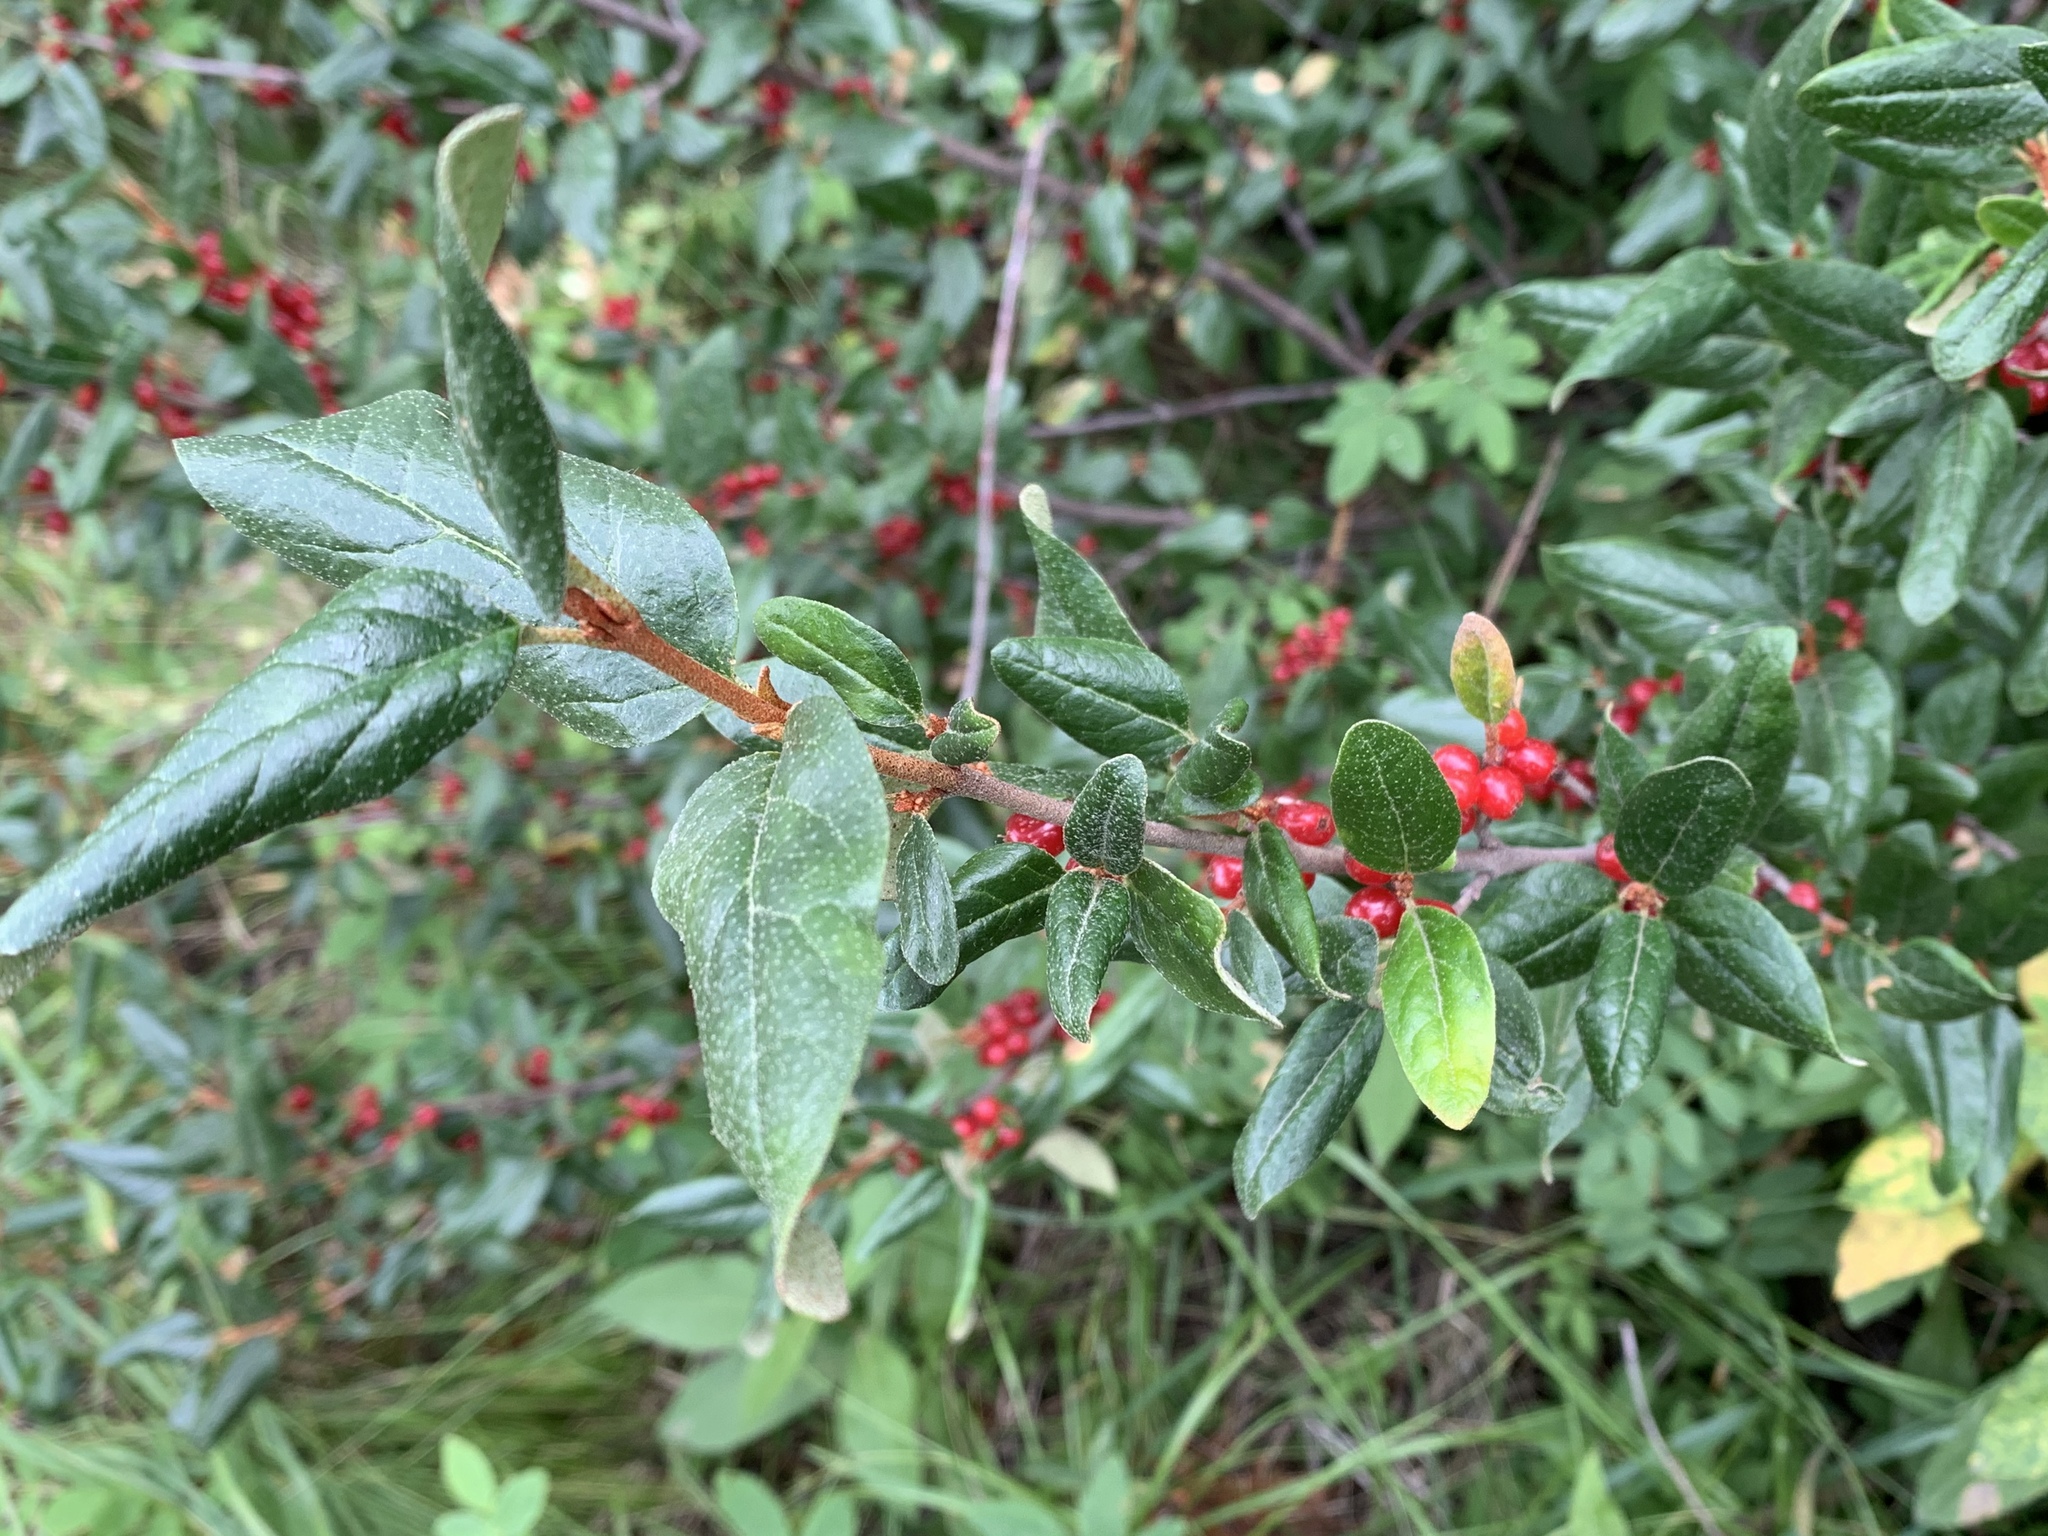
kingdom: Plantae
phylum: Tracheophyta
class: Magnoliopsida
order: Rosales
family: Elaeagnaceae
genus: Shepherdia
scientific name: Shepherdia canadensis
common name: Soapberry
